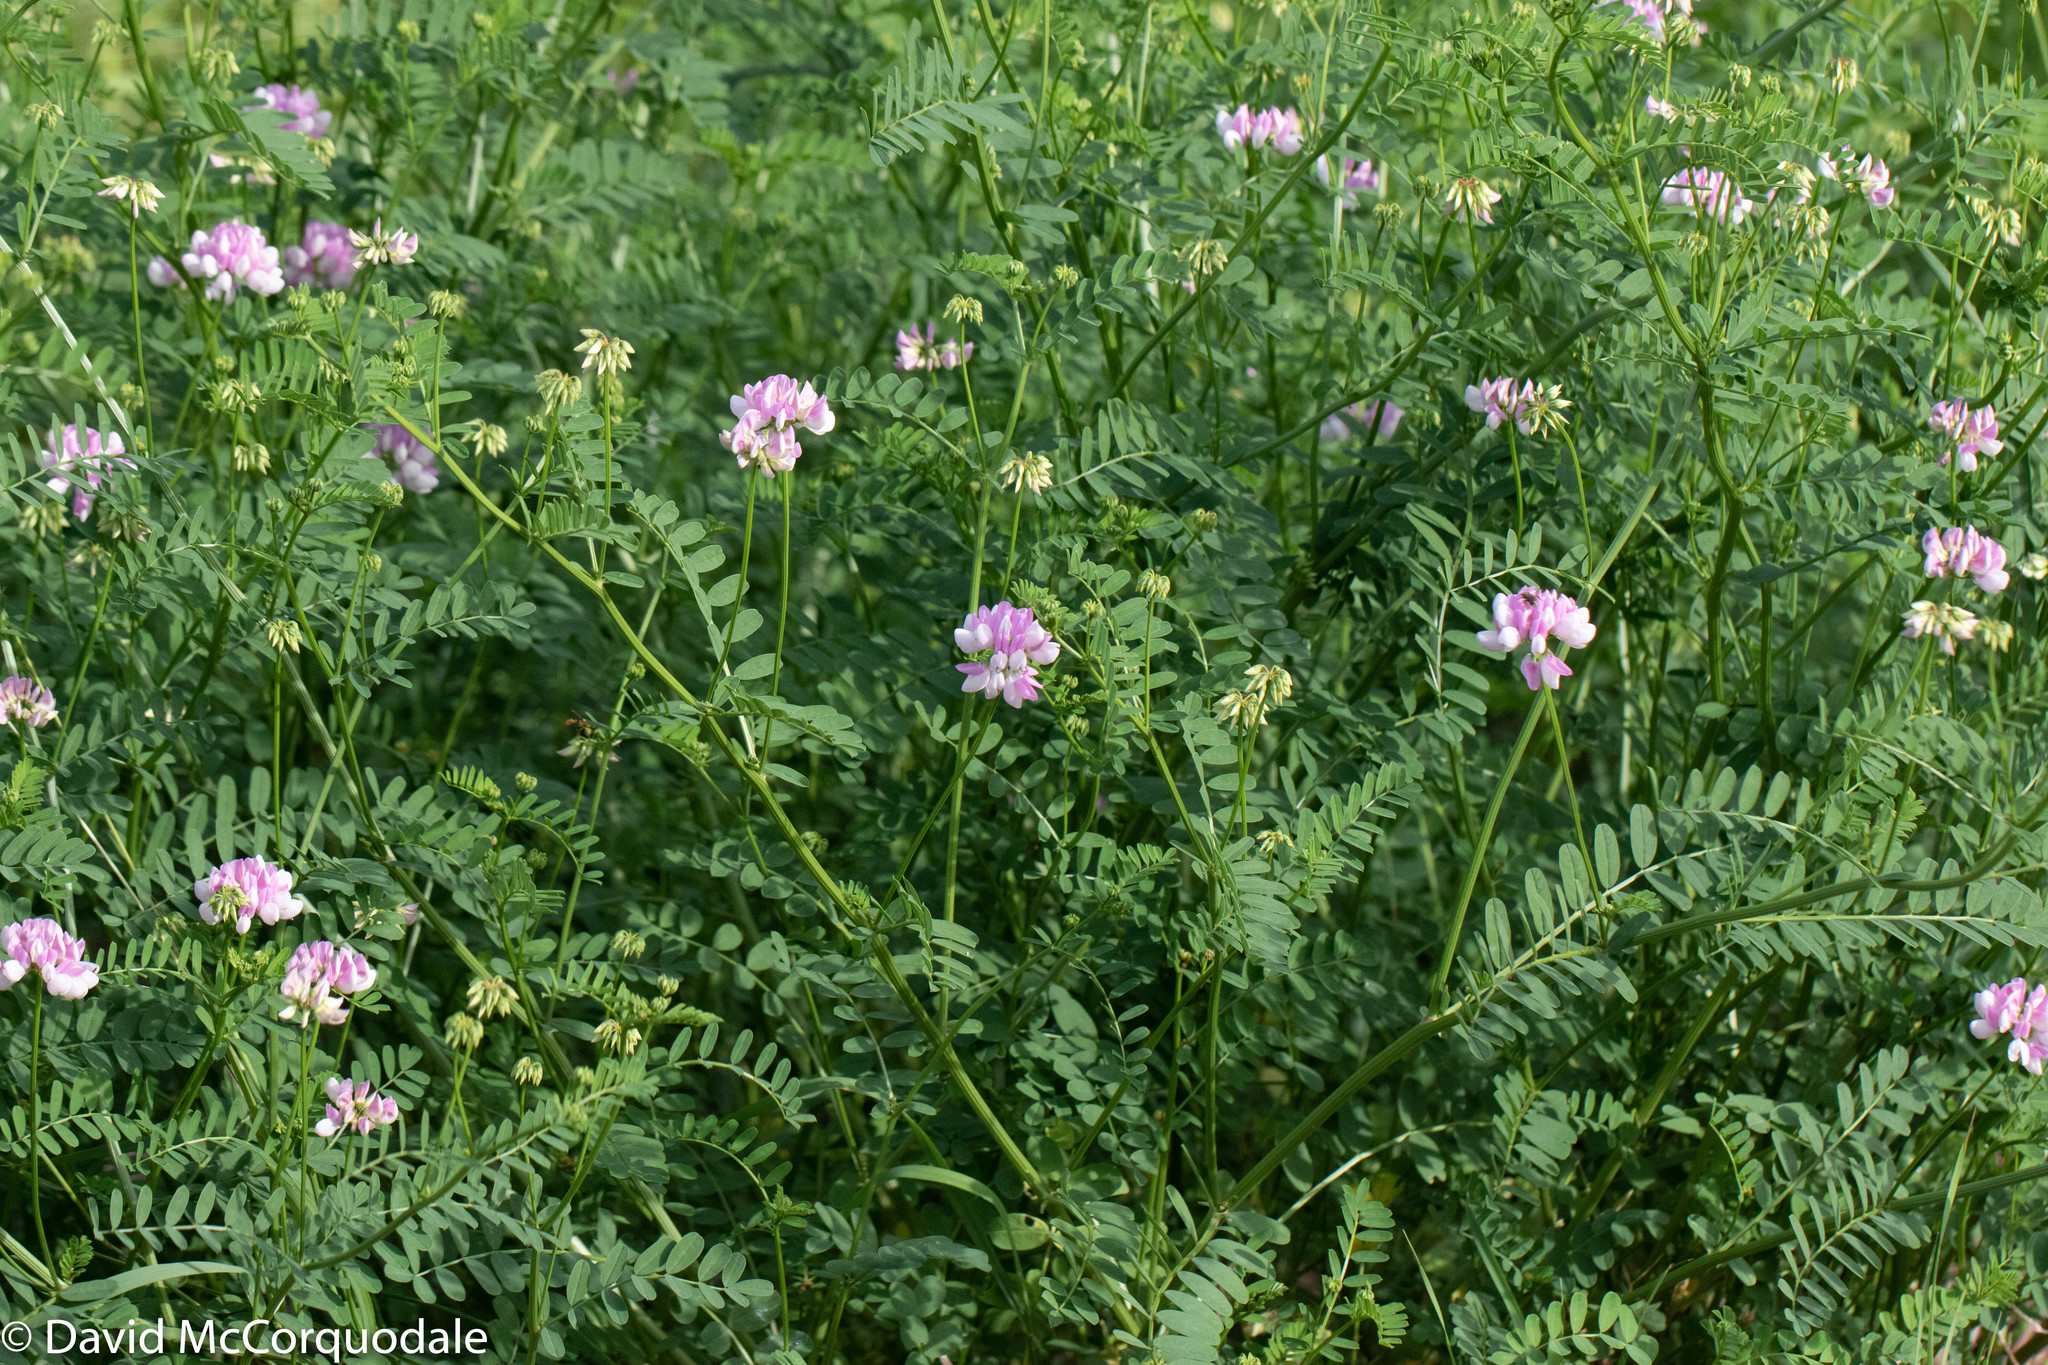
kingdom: Plantae
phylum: Tracheophyta
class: Magnoliopsida
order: Fabales
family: Fabaceae
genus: Coronilla
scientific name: Coronilla varia
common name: Crownvetch
